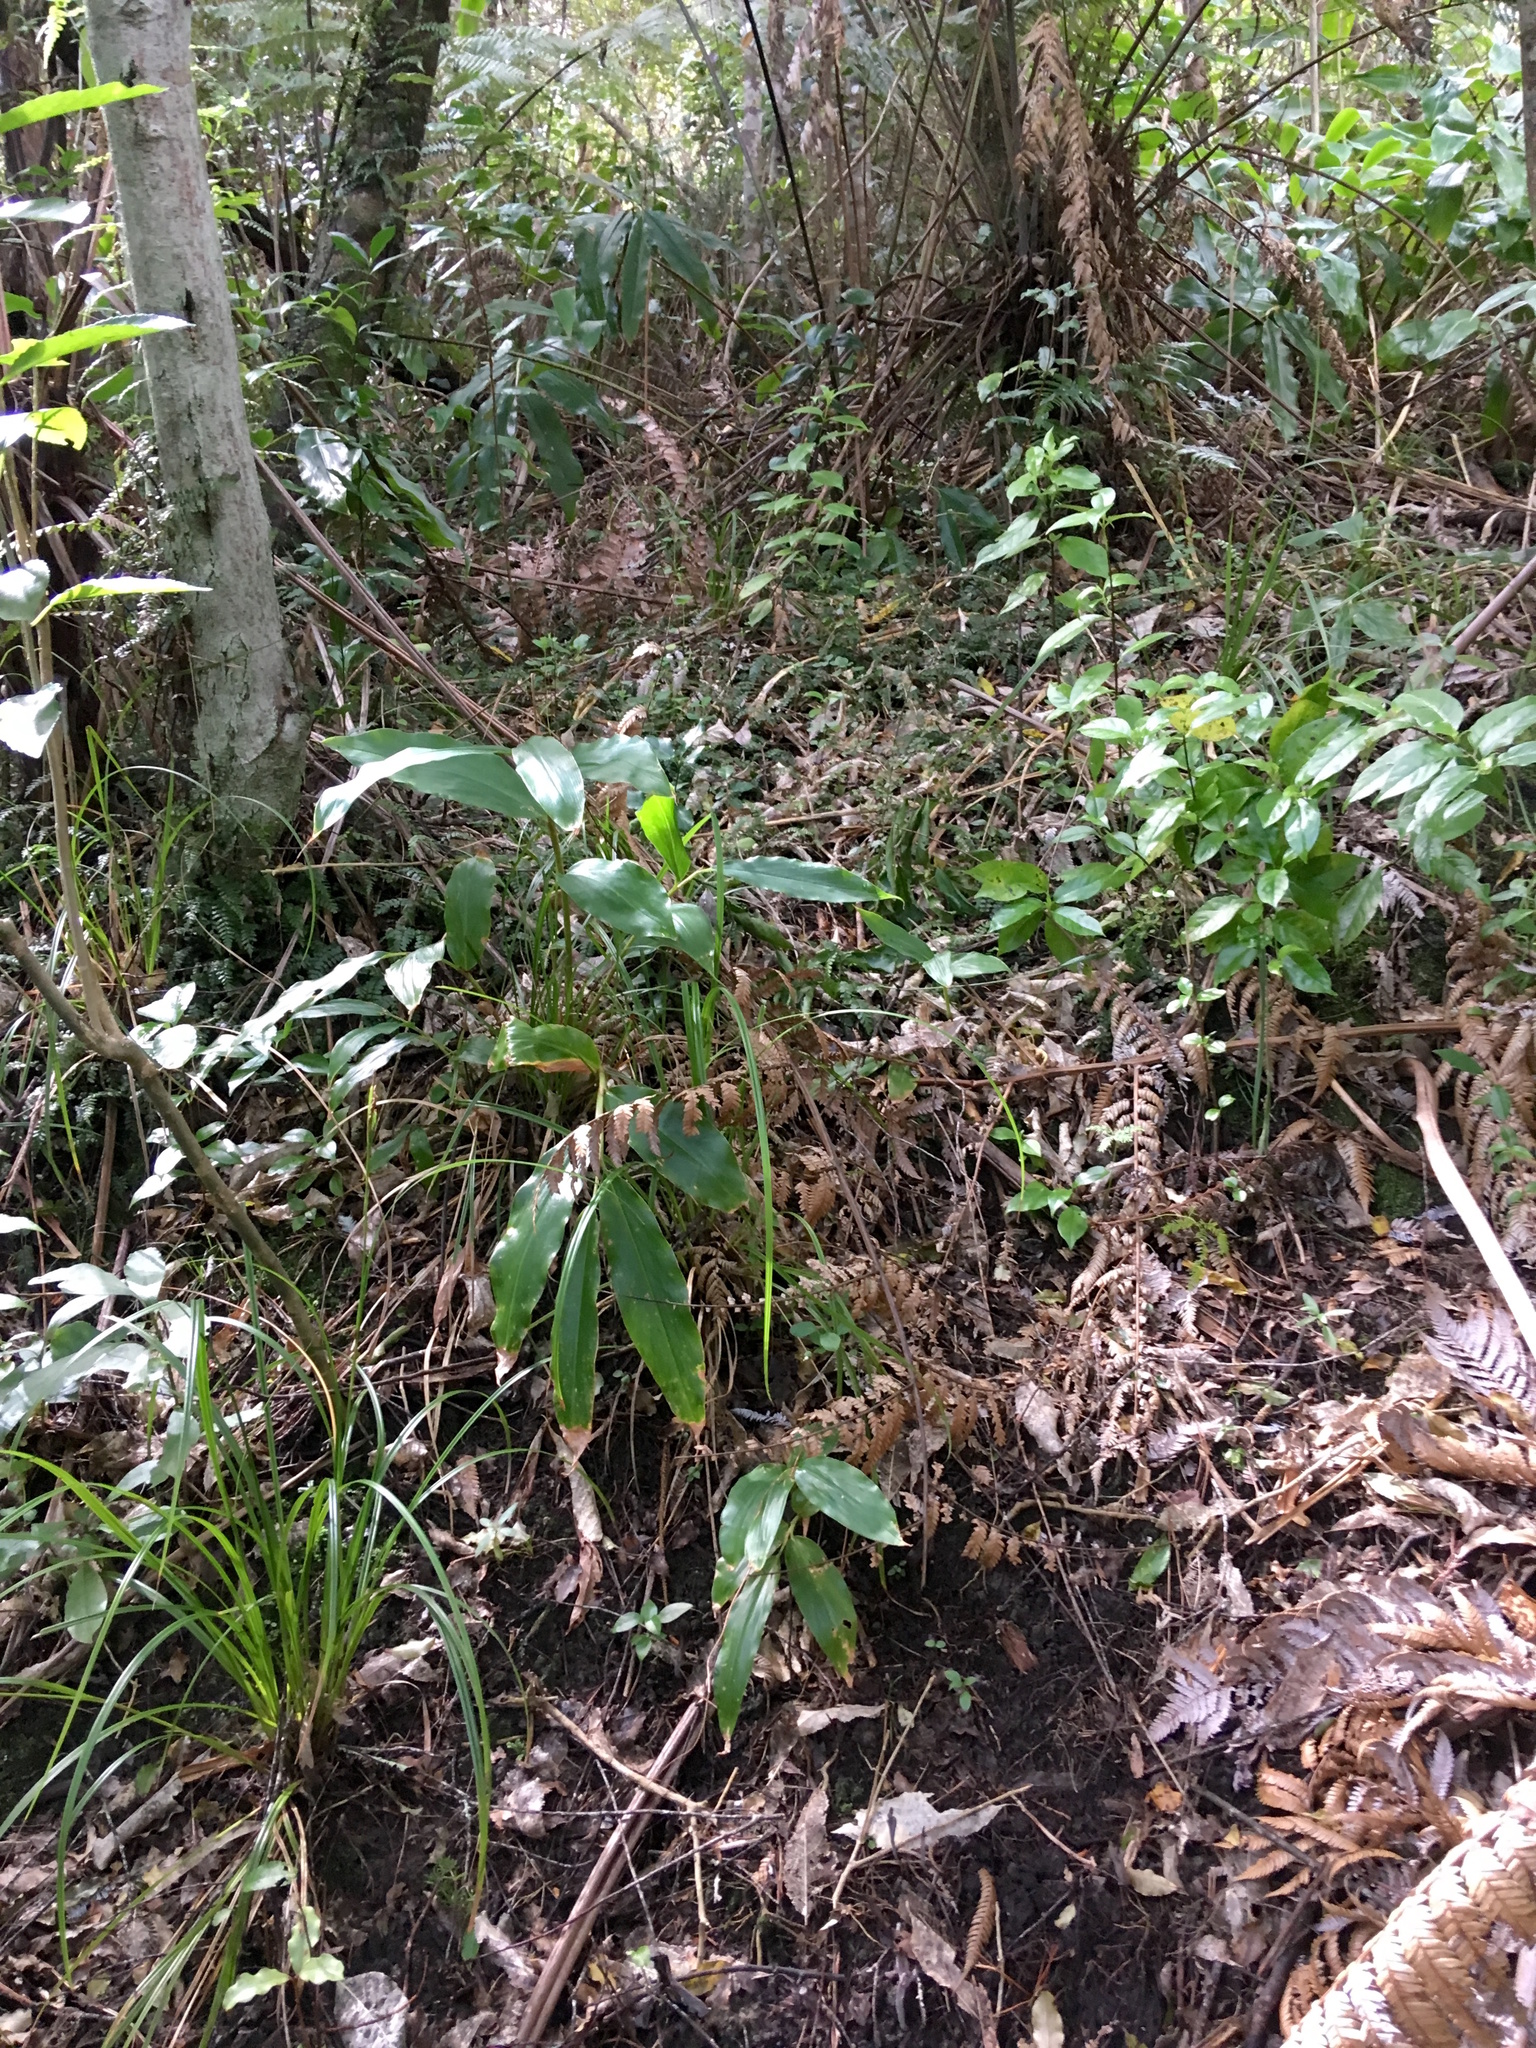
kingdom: Plantae
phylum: Tracheophyta
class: Liliopsida
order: Zingiberales
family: Zingiberaceae
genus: Hedychium
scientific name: Hedychium gardnerianum
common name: Himalayan ginger
